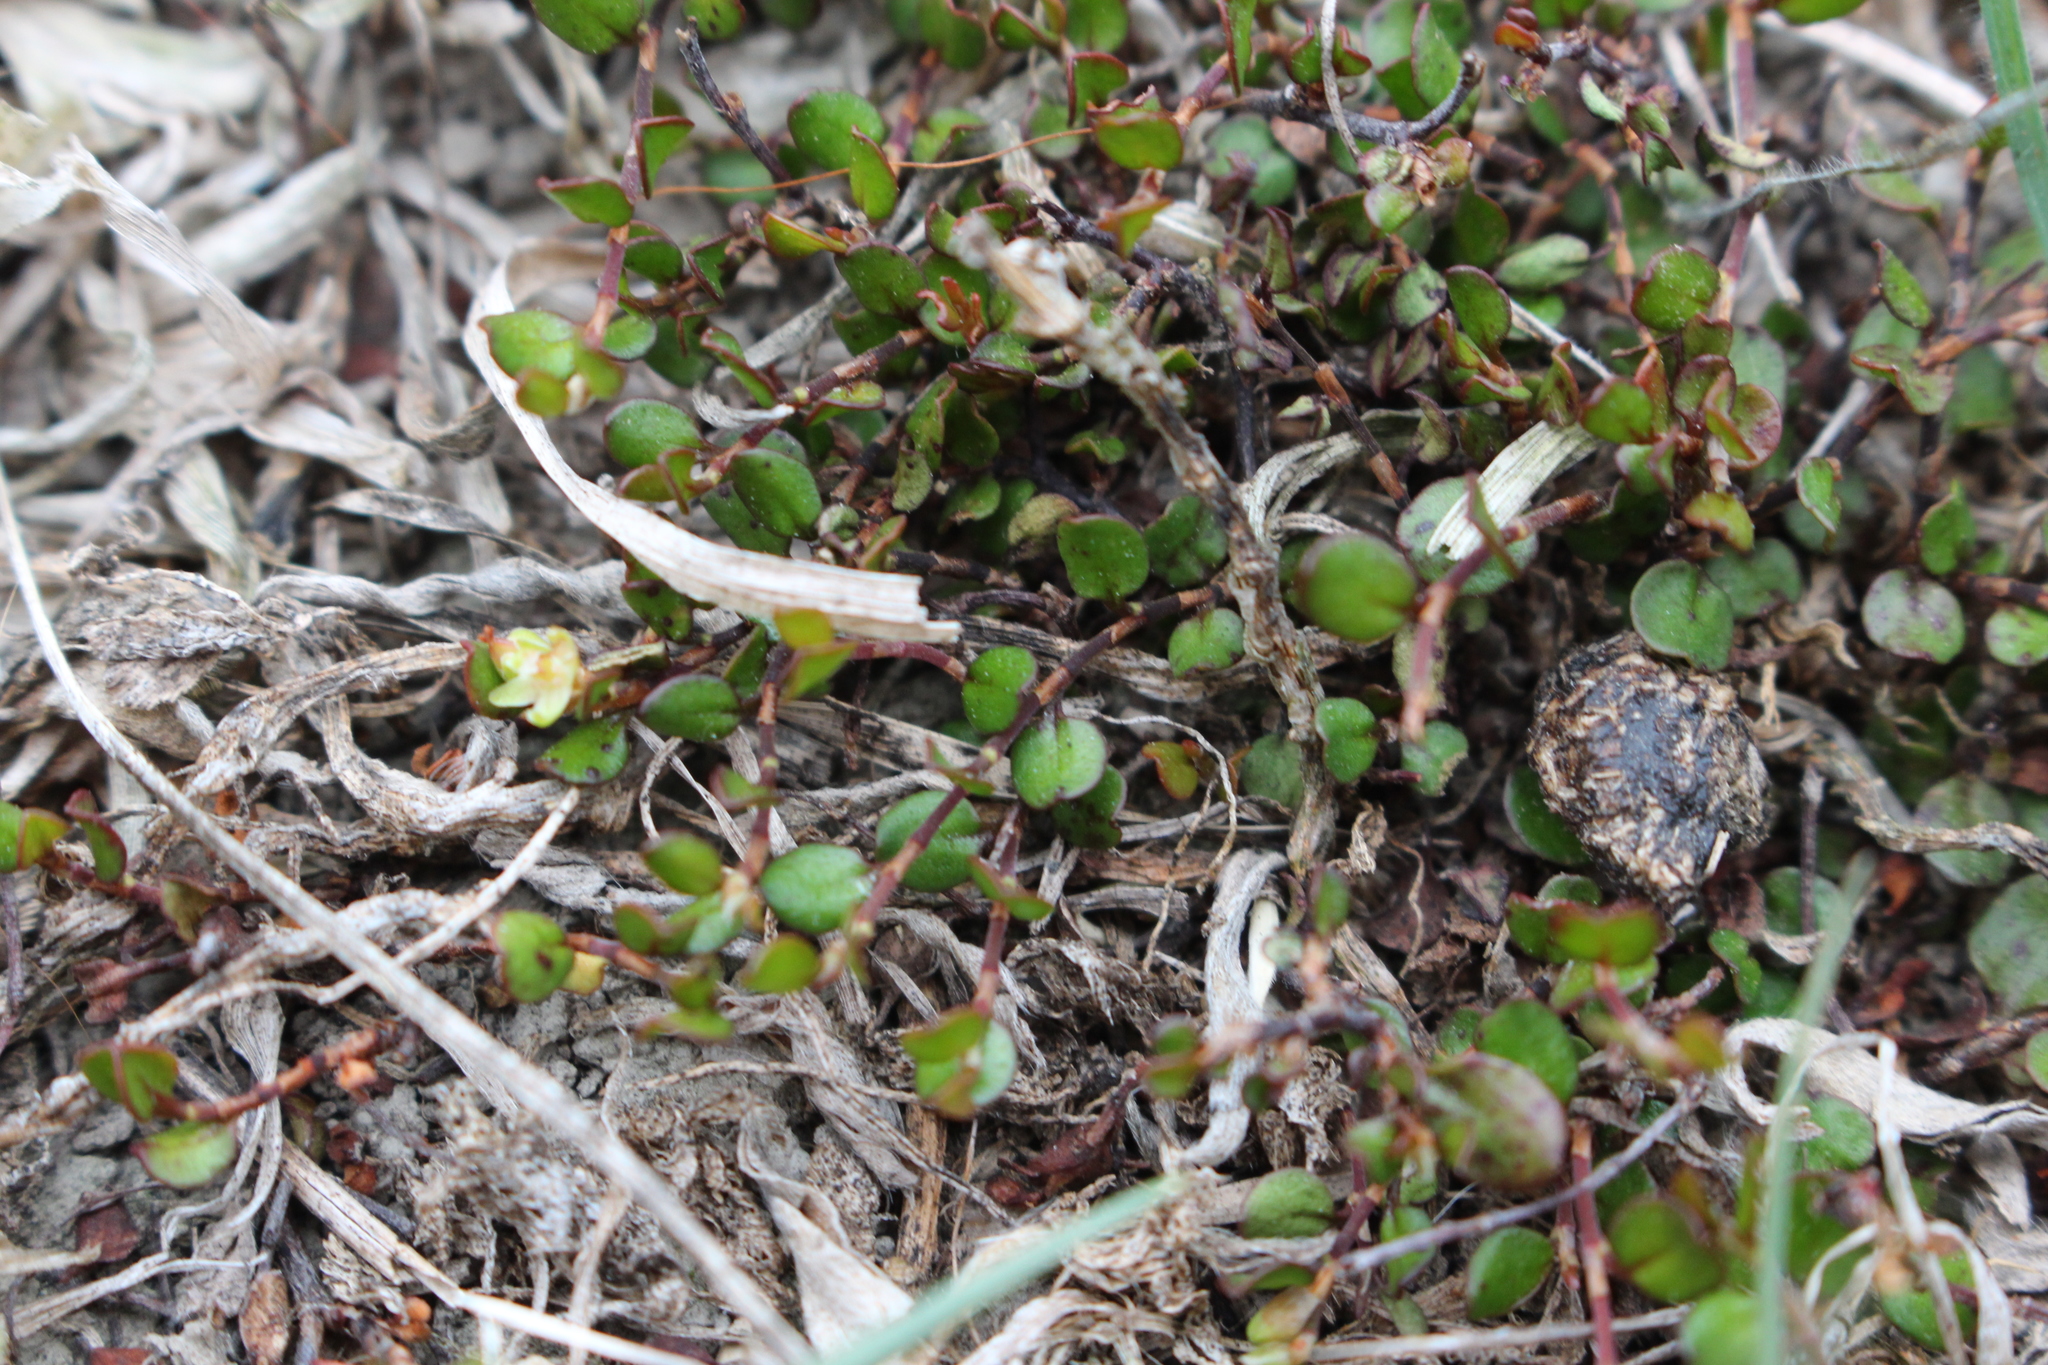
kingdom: Plantae
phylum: Tracheophyta
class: Magnoliopsida
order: Caryophyllales
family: Polygonaceae
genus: Muehlenbeckia
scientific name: Muehlenbeckia axillaris
